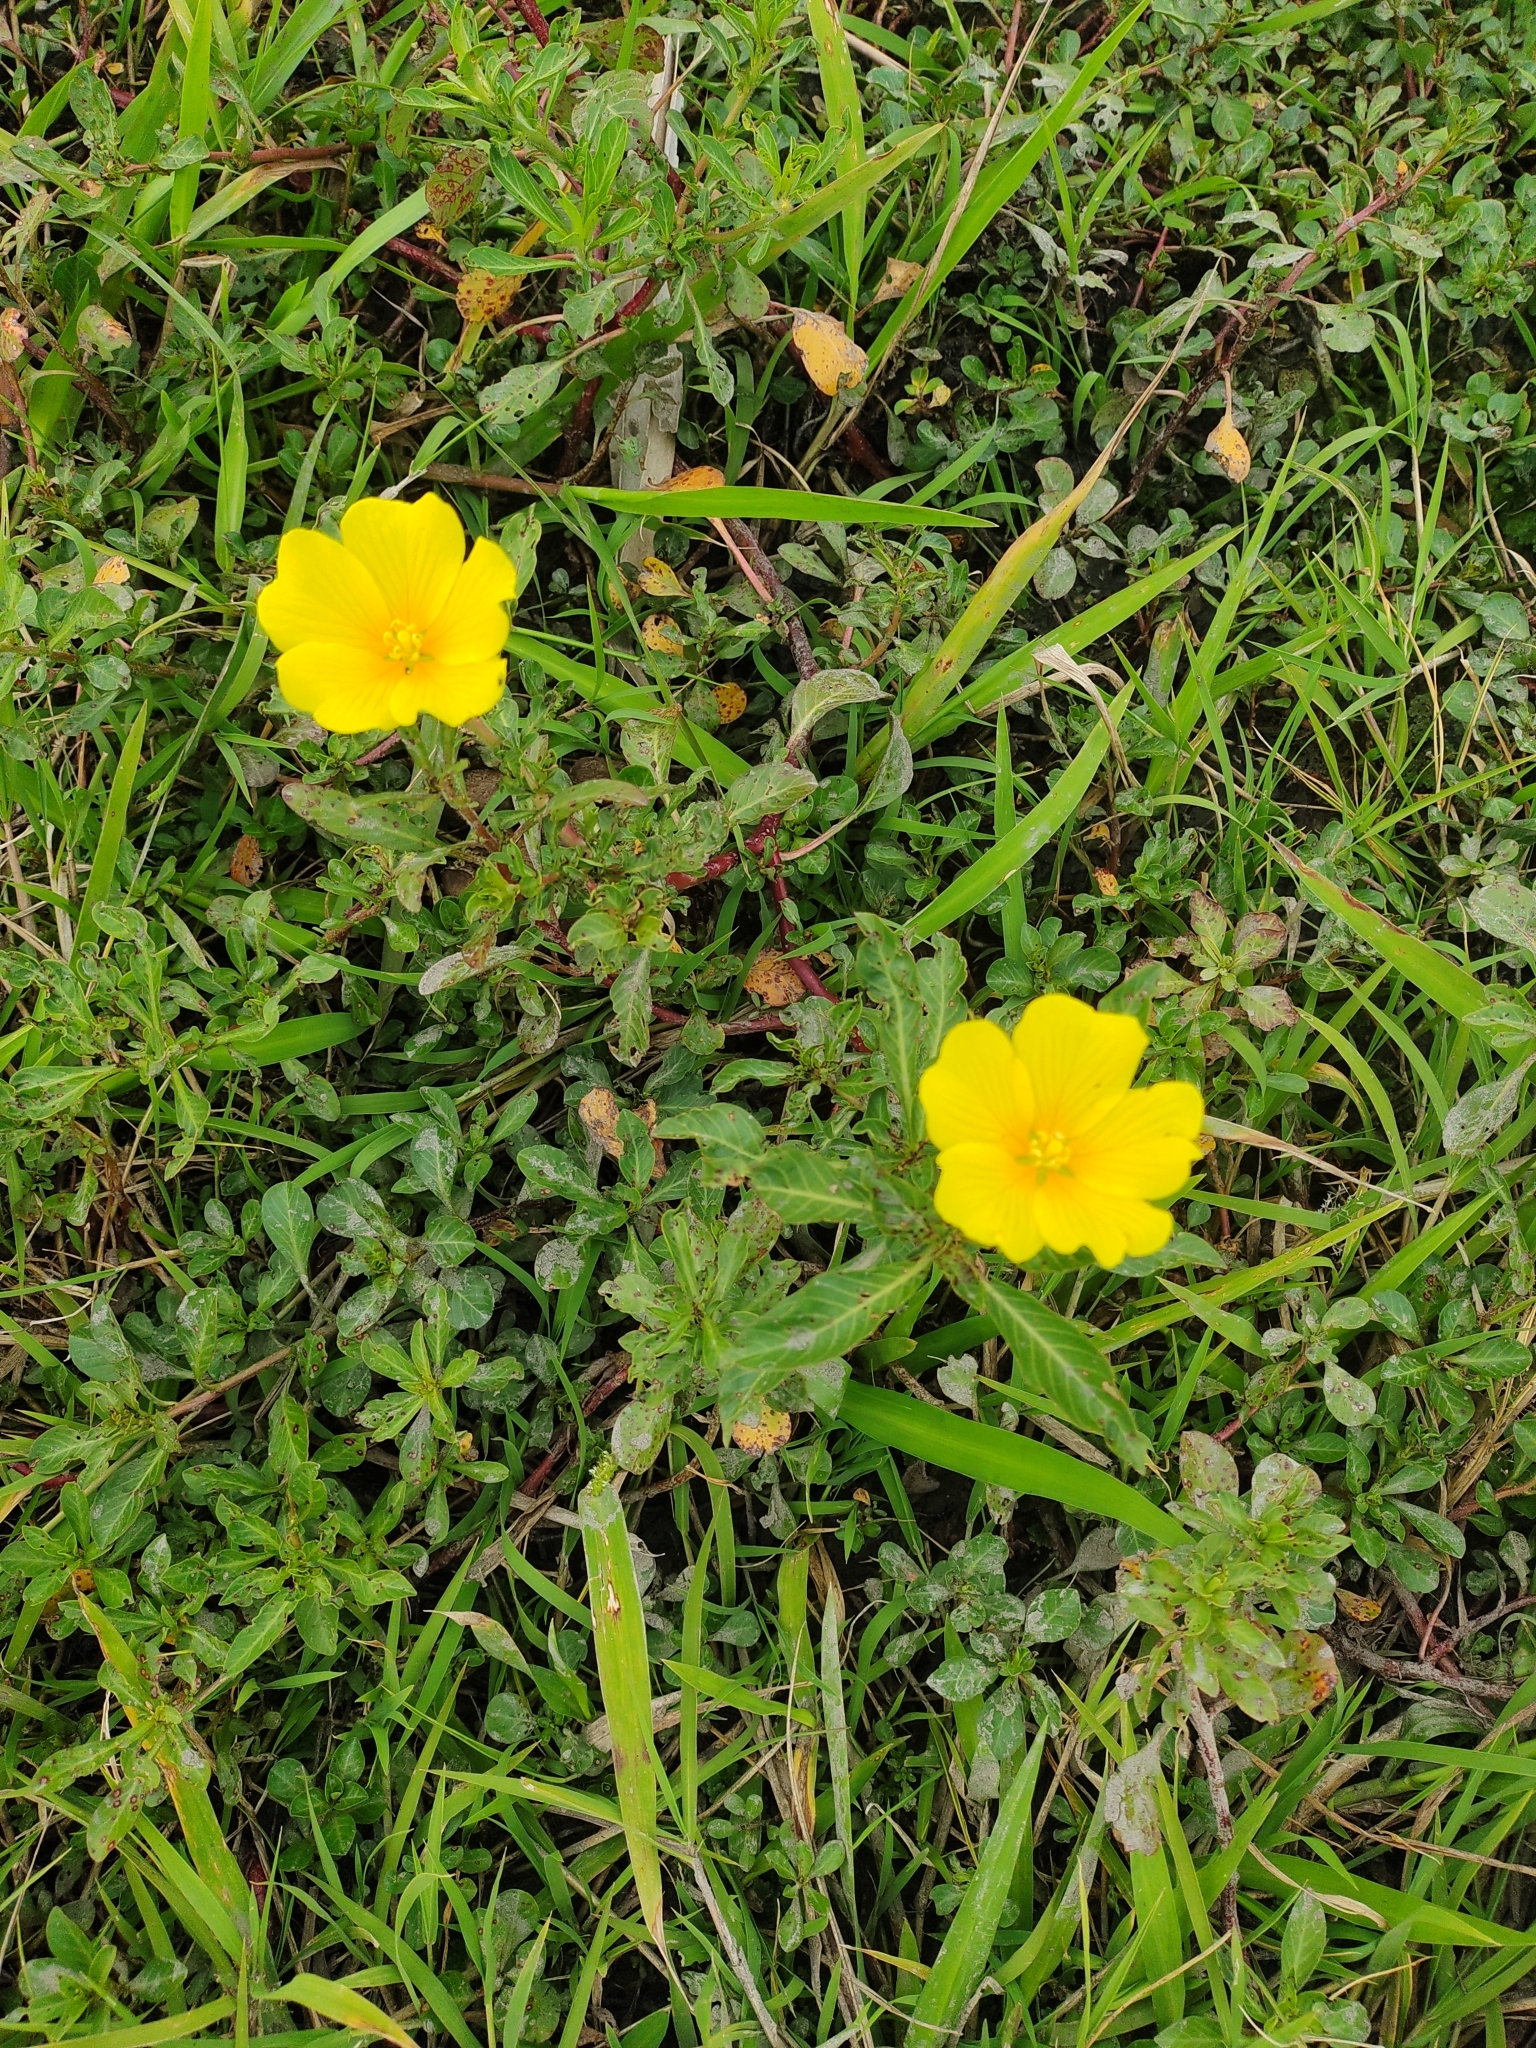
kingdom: Plantae
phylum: Tracheophyta
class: Magnoliopsida
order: Myrtales
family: Onagraceae
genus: Ludwigia
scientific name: Ludwigia peploides
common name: Floating primrose-willow
